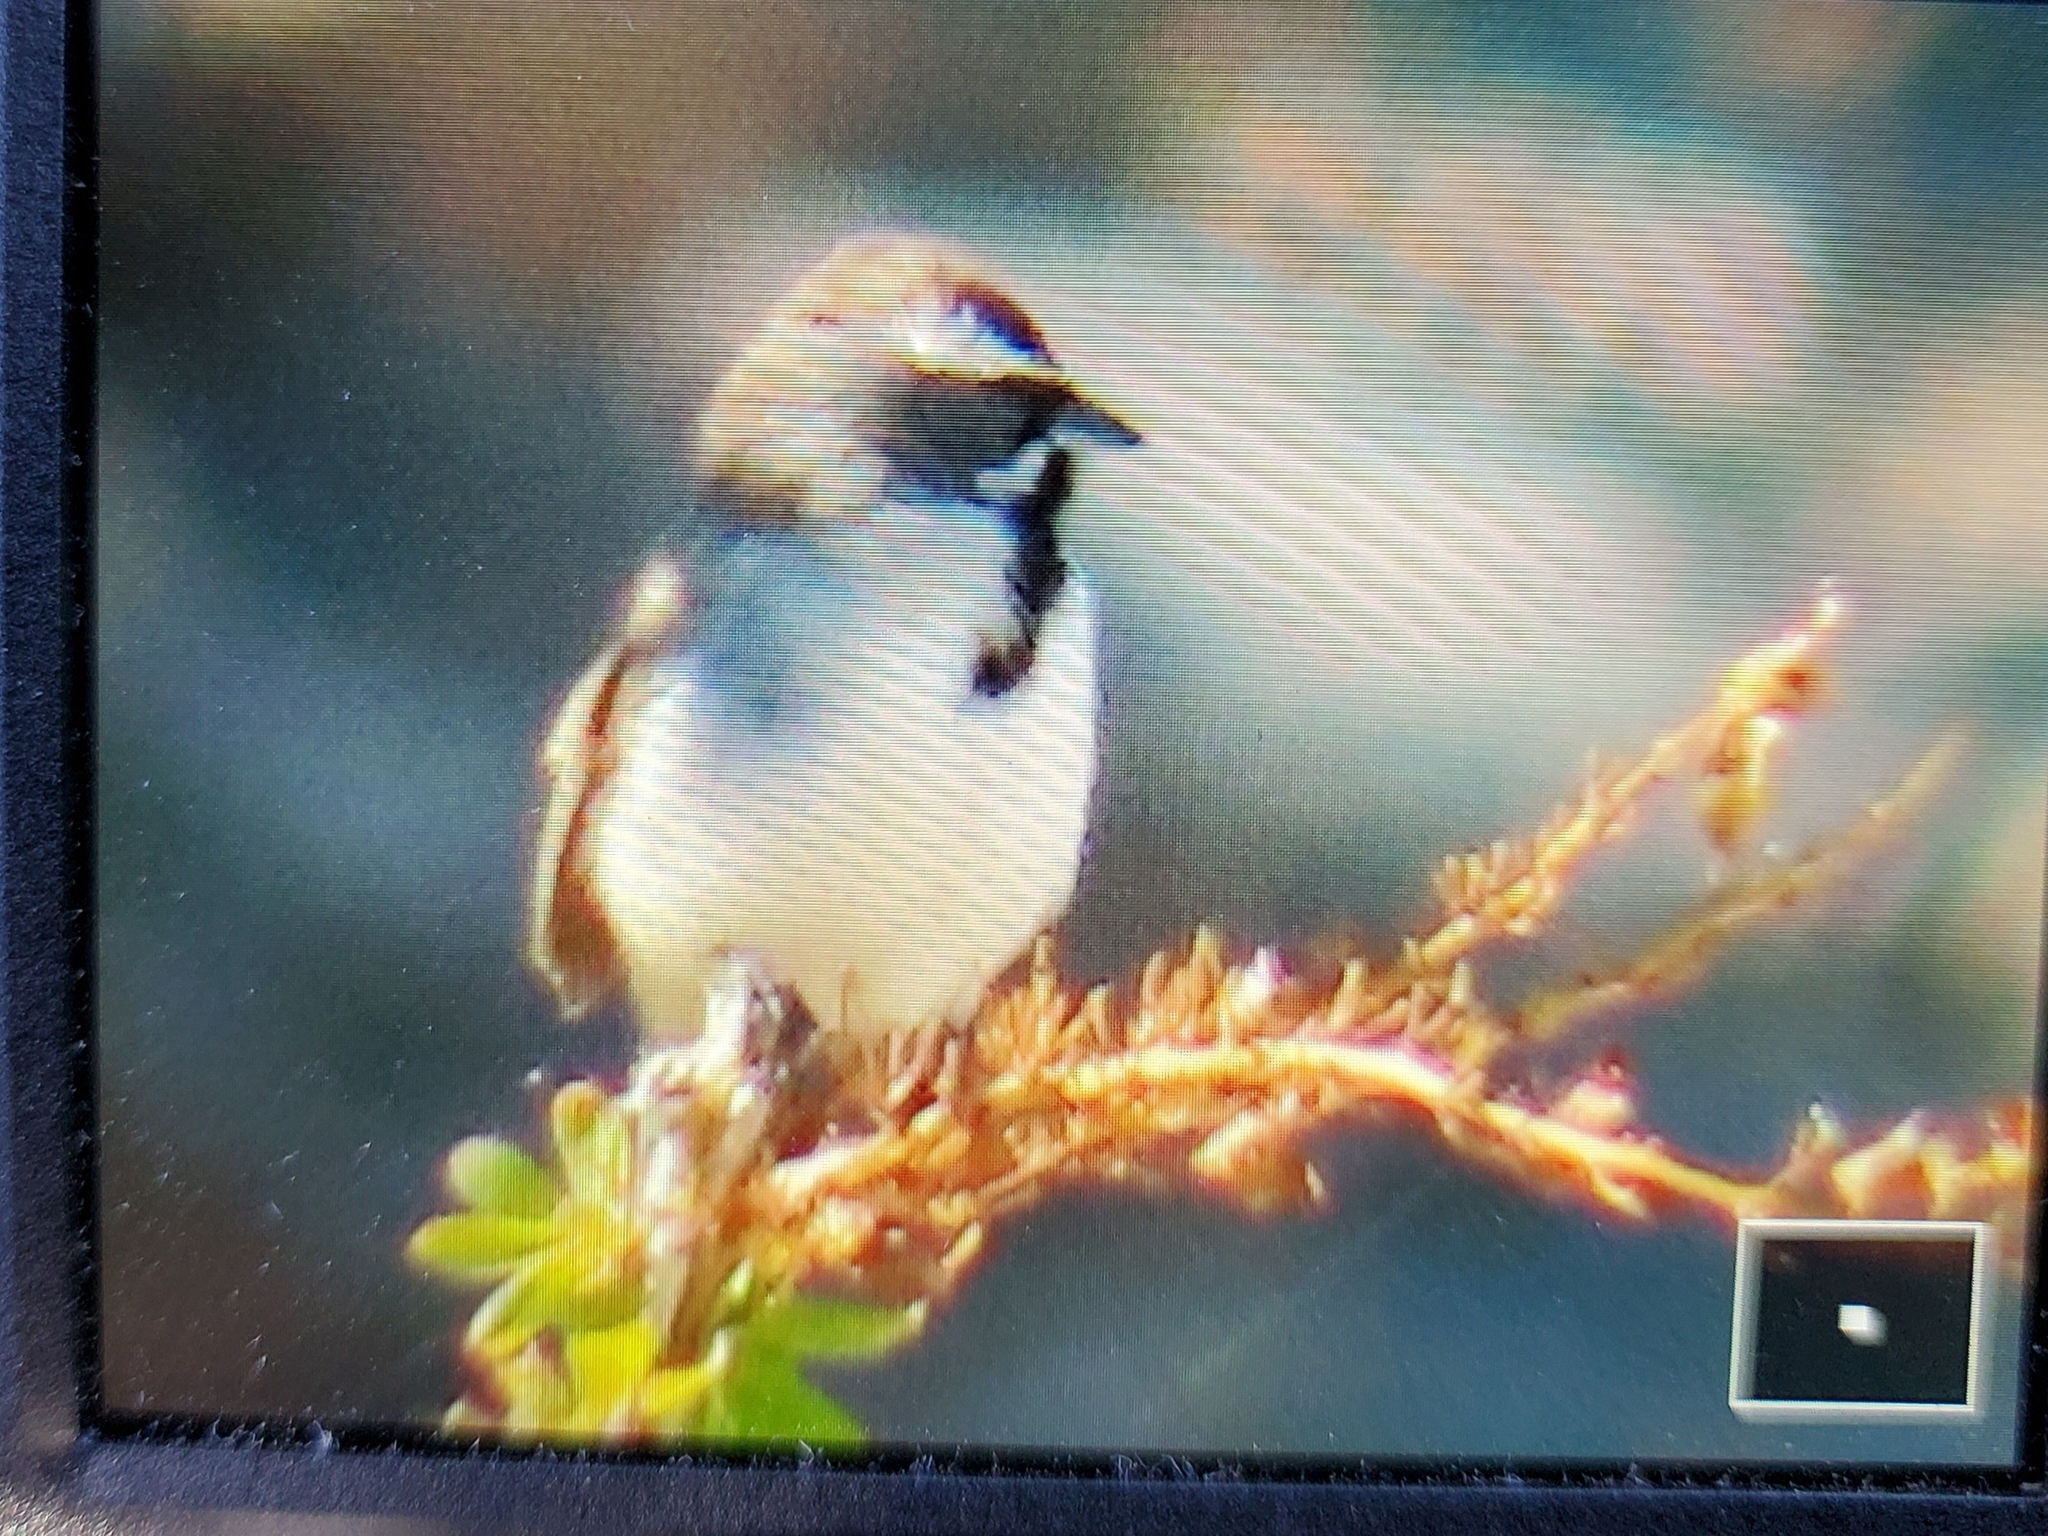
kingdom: Animalia
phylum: Chordata
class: Aves
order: Passeriformes
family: Passerellidae
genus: Amphispiza
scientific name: Amphispiza bilineata
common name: Black-throated sparrow
